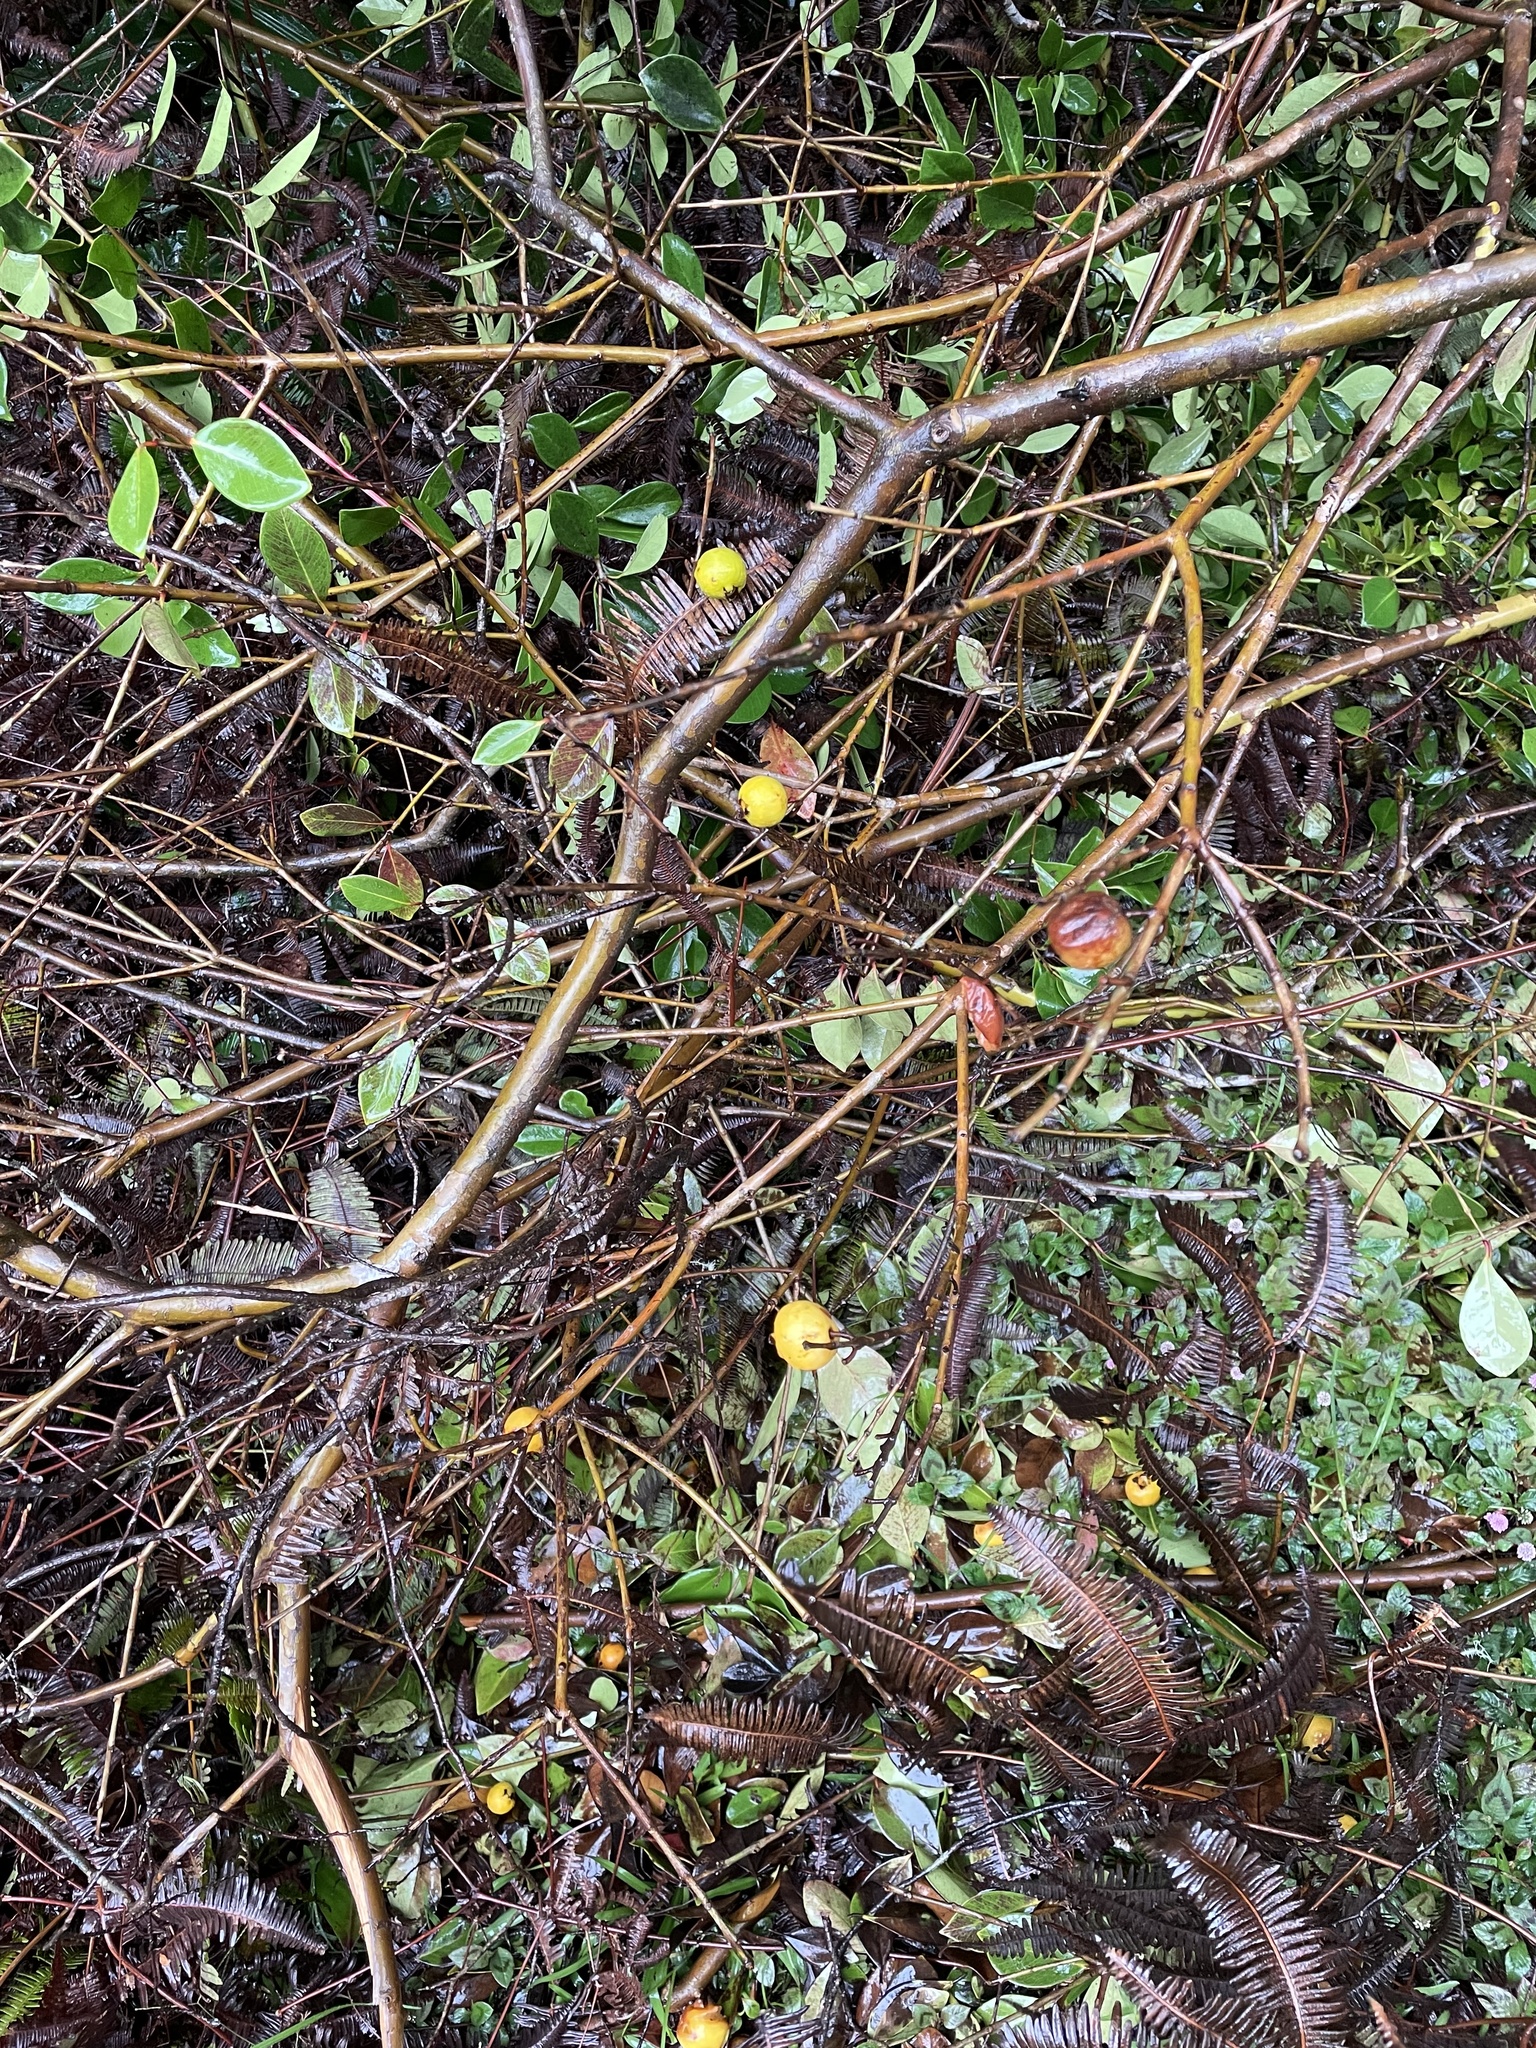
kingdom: Plantae
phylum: Tracheophyta
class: Magnoliopsida
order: Myrtales
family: Myrtaceae
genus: Psidium
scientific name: Psidium cattleianum
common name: Strawberry guava
